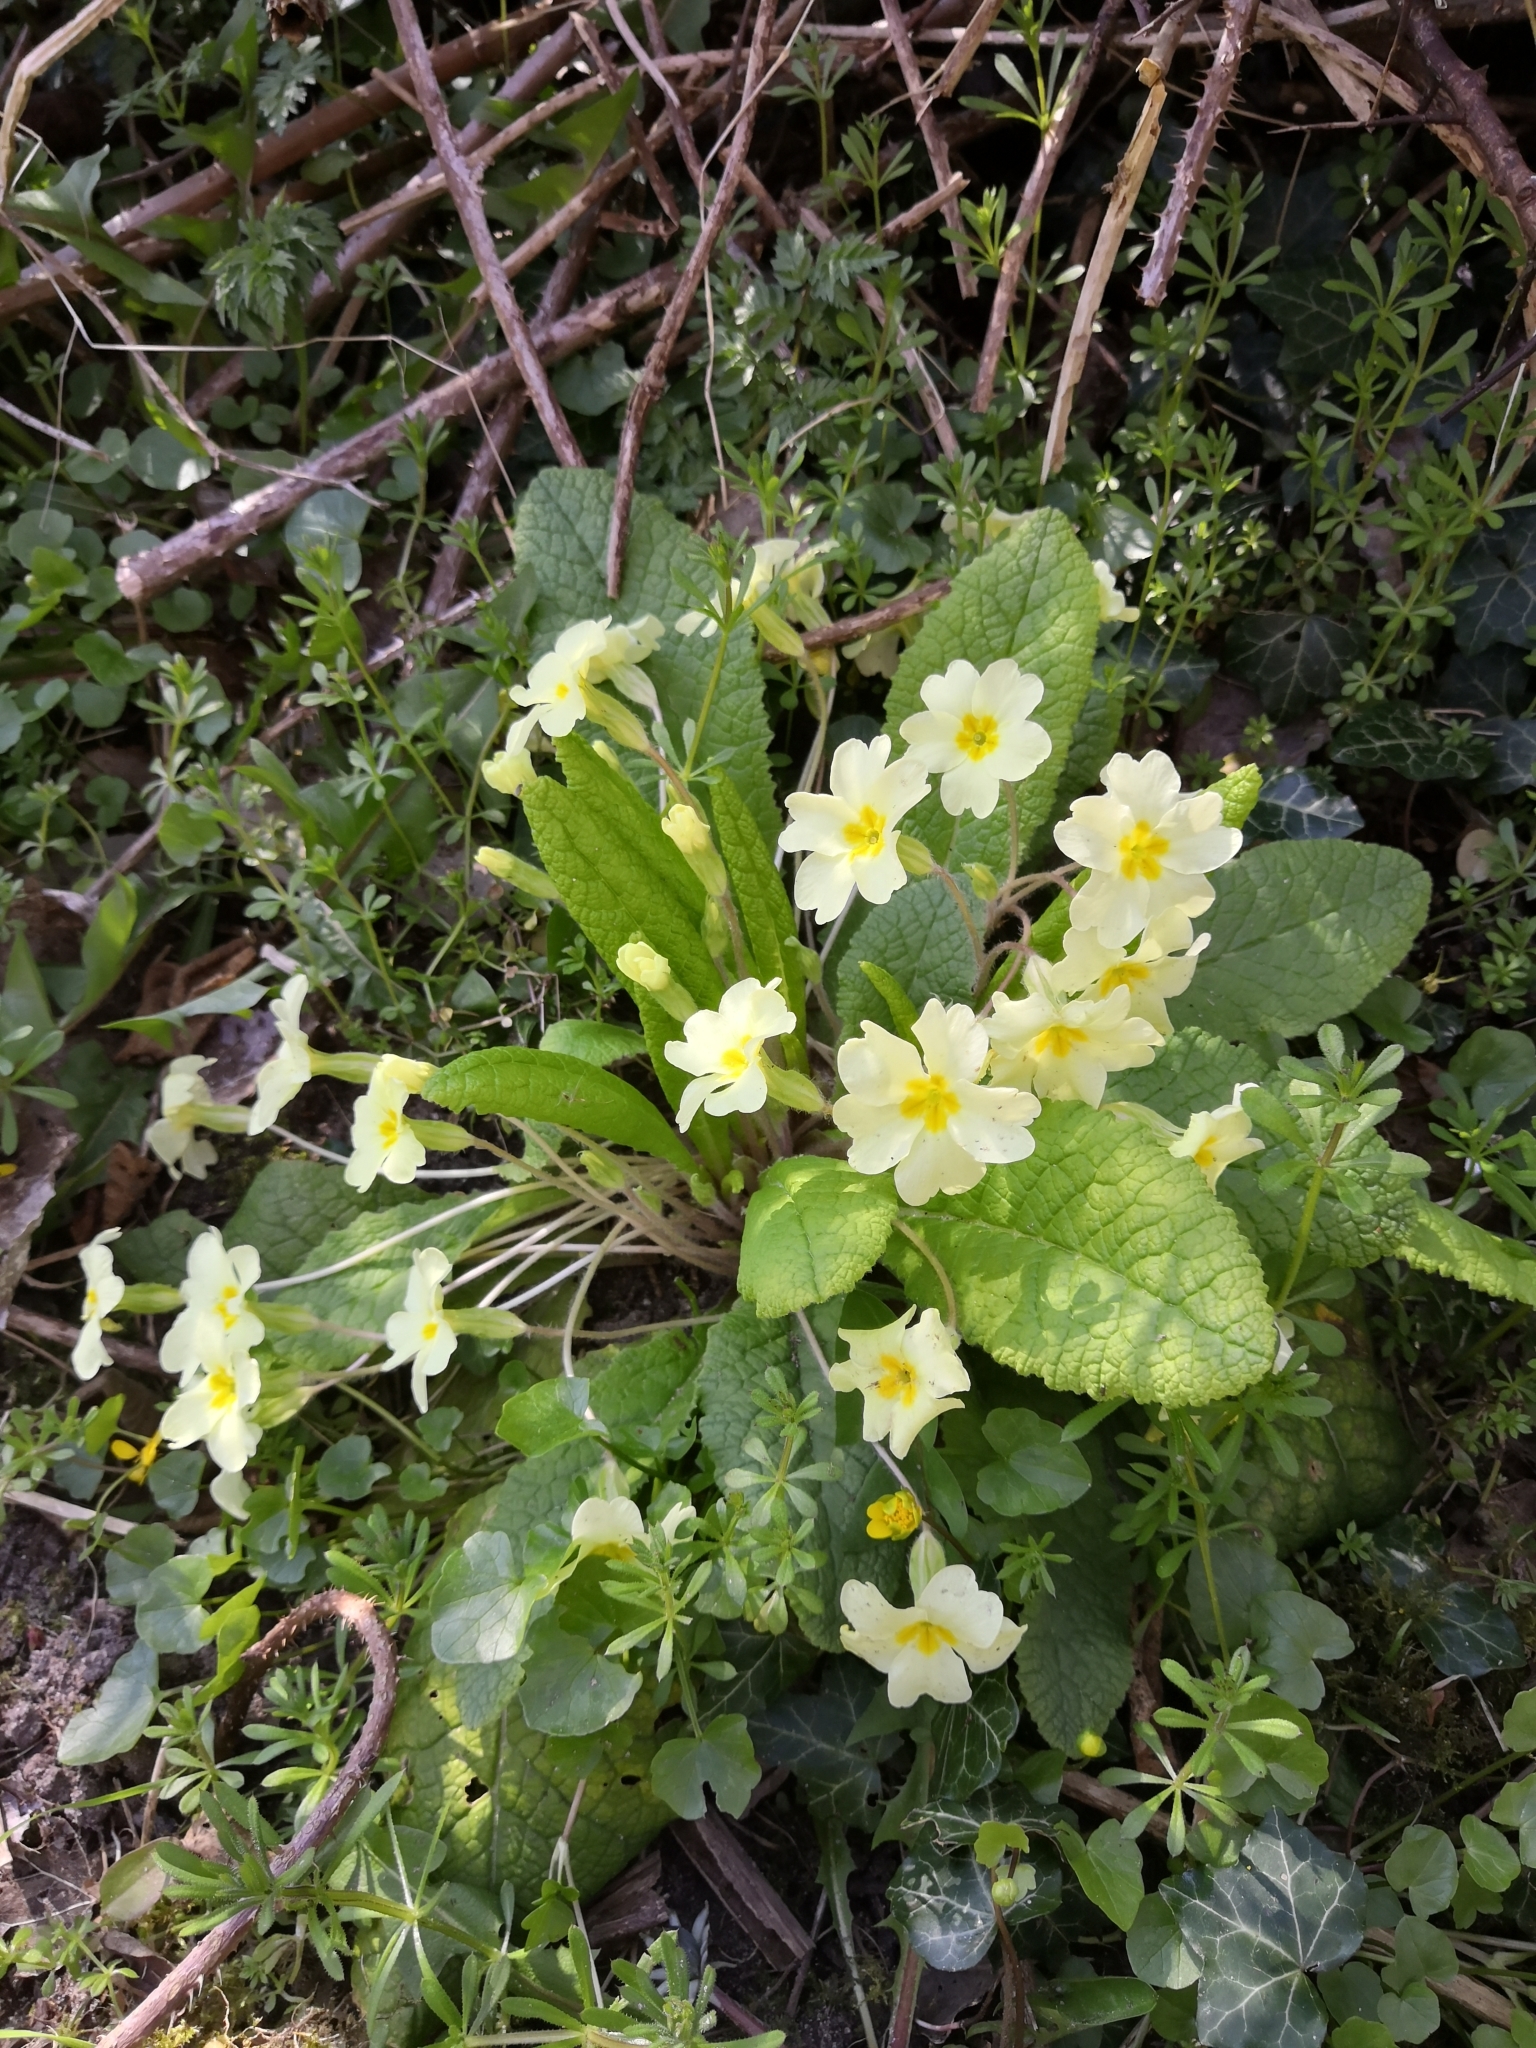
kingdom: Plantae
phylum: Tracheophyta
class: Magnoliopsida
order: Ericales
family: Primulaceae
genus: Primula
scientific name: Primula vulgaris
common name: Primrose
